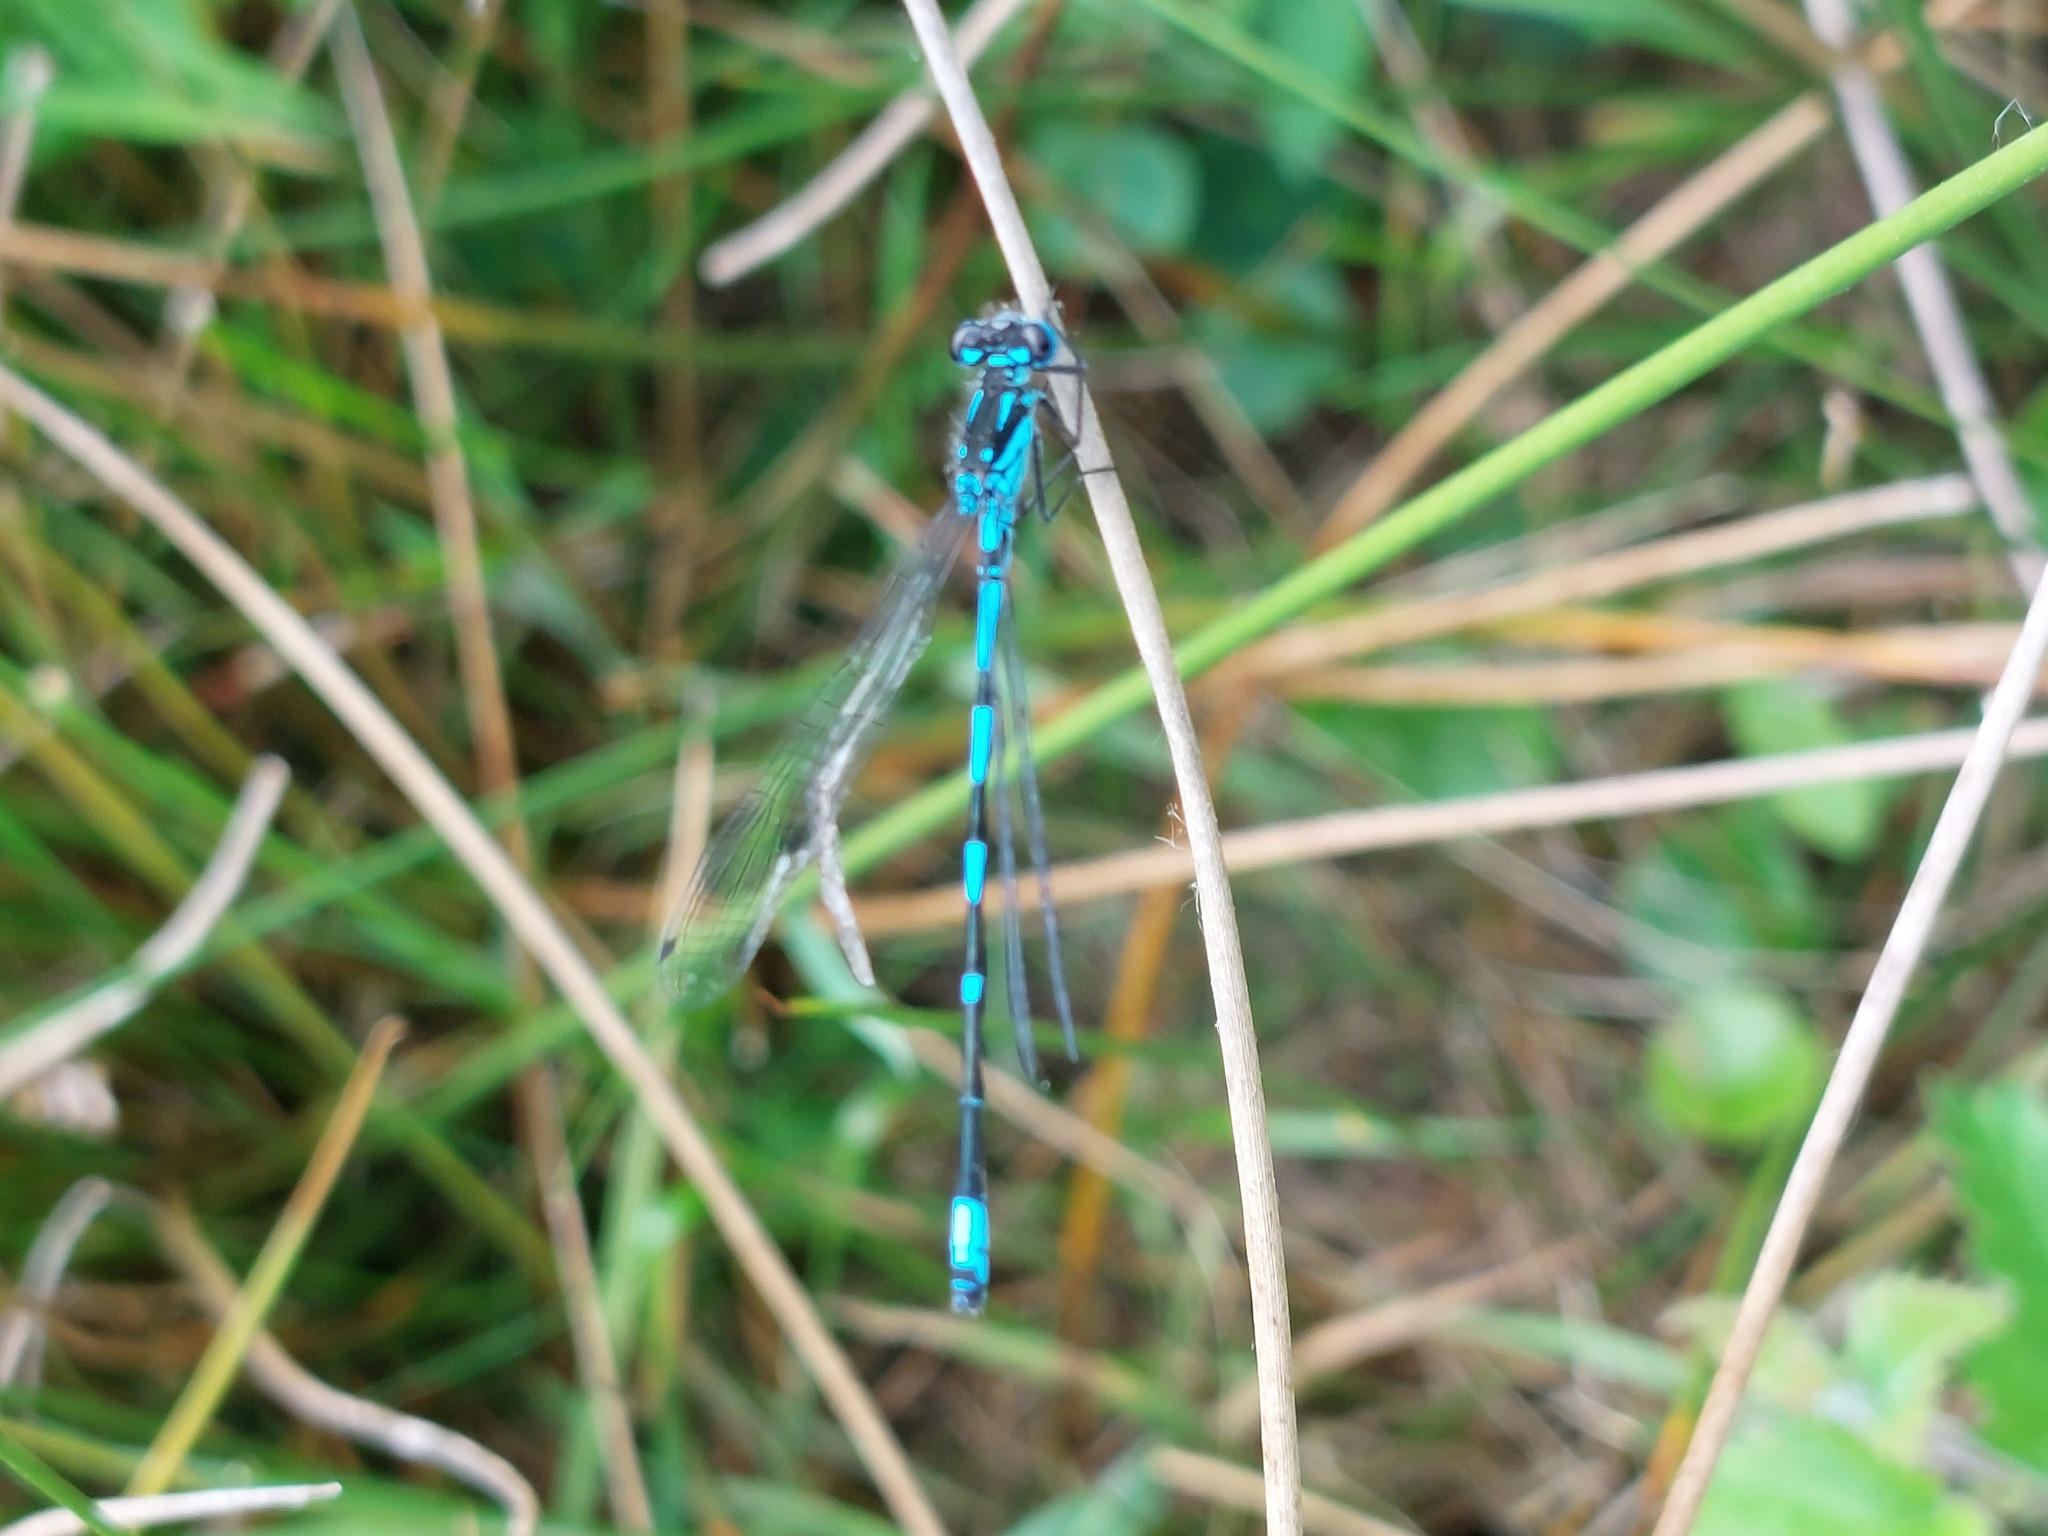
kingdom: Animalia
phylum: Arthropoda
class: Insecta
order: Odonata
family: Coenagrionidae
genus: Coenagrion
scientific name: Coenagrion pulchellum
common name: Variable bluet
